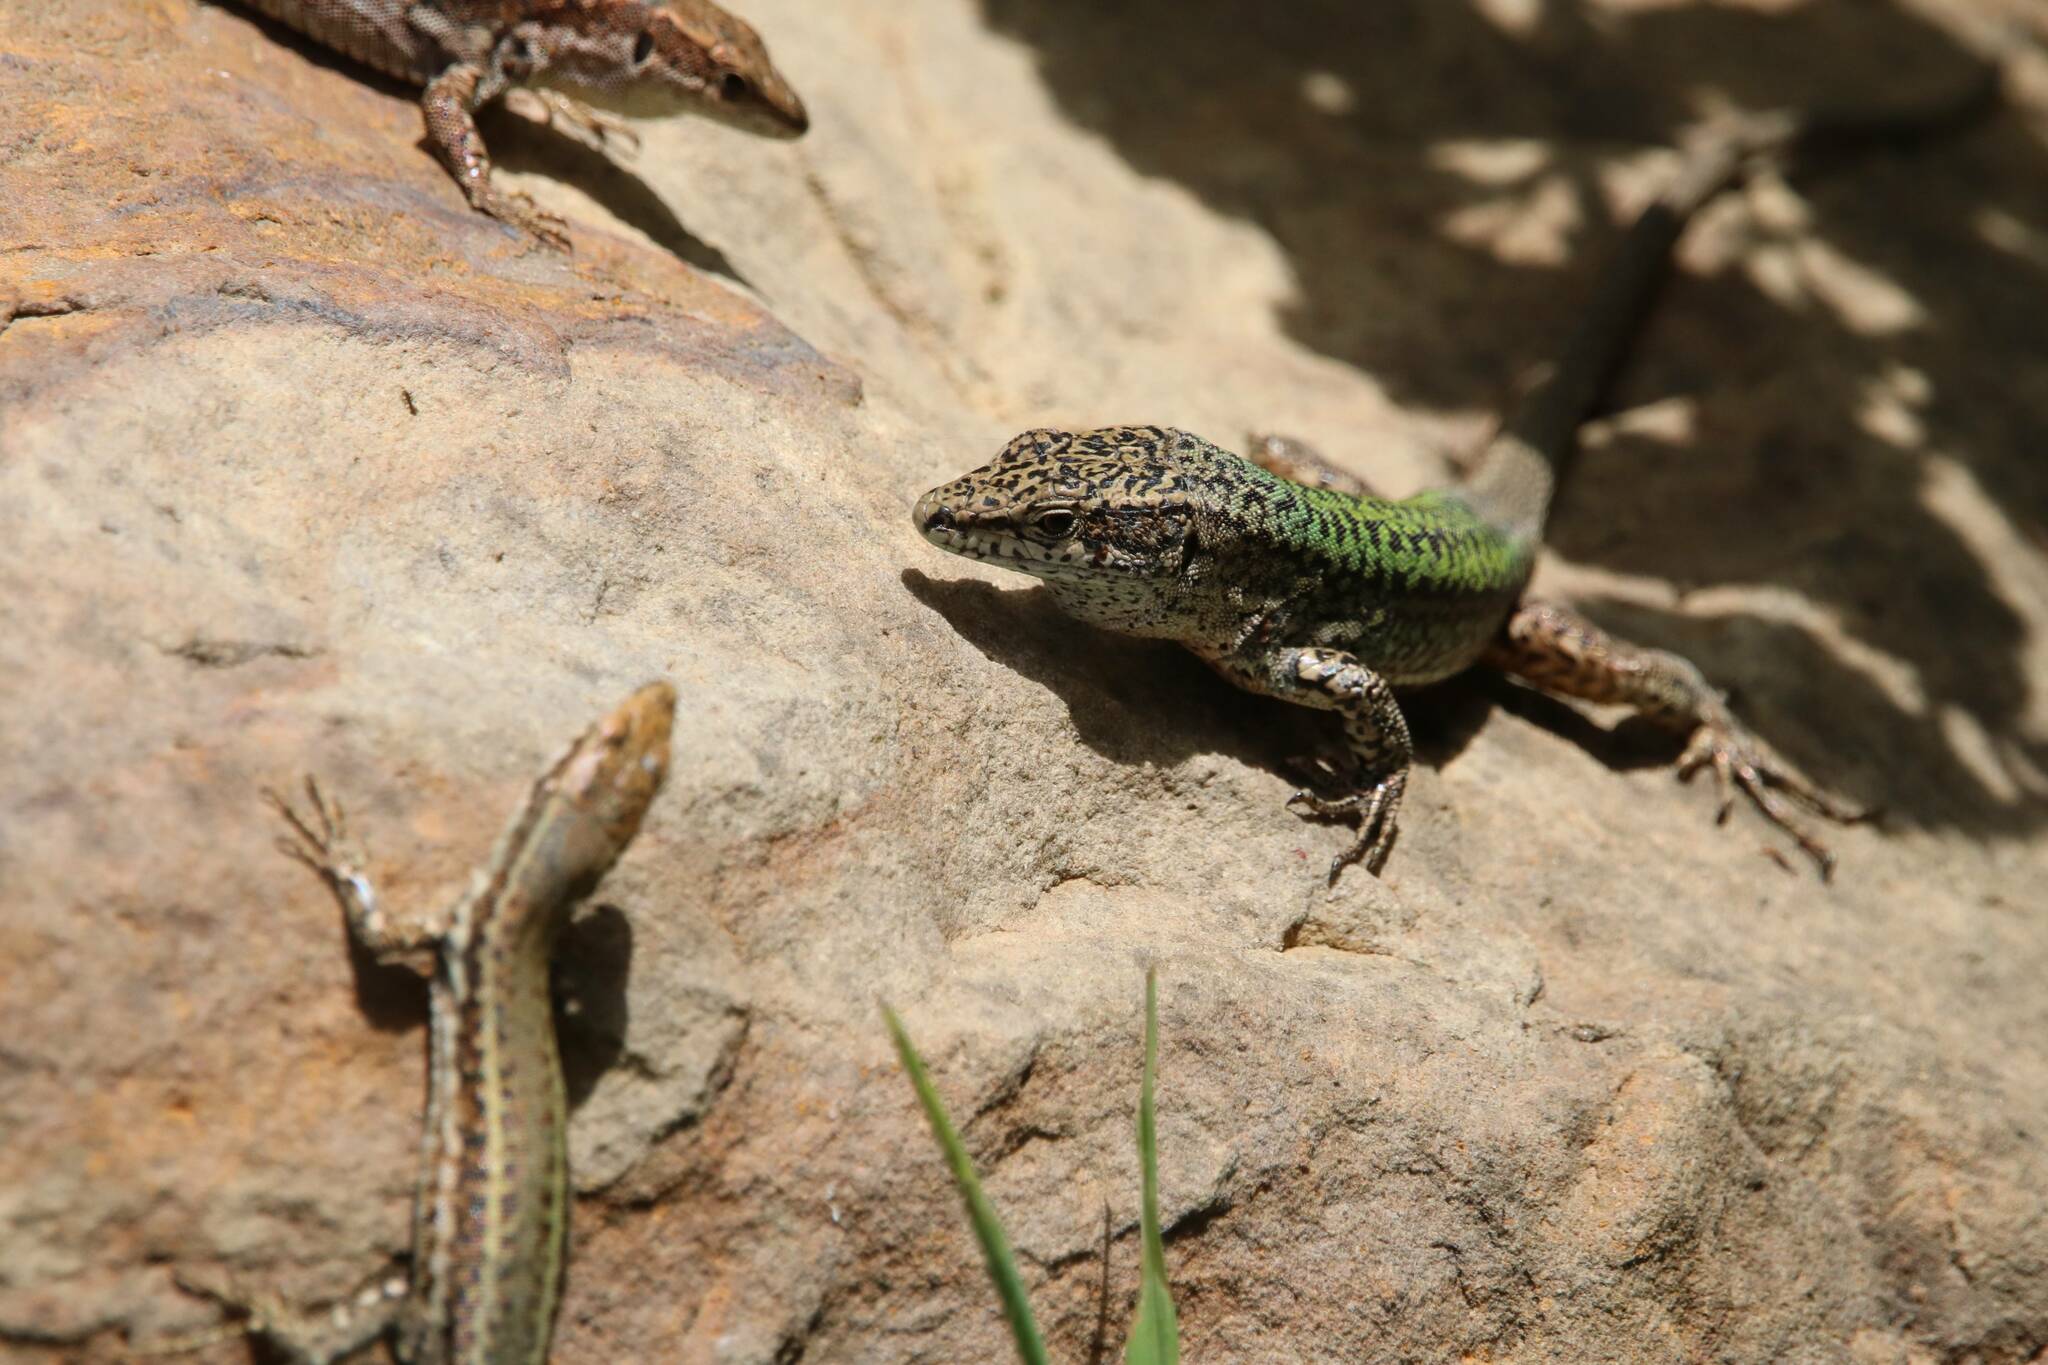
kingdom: Animalia
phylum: Chordata
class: Squamata
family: Lacertidae
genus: Podarcis
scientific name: Podarcis vaucheri
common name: Vaucher's wall lizard
